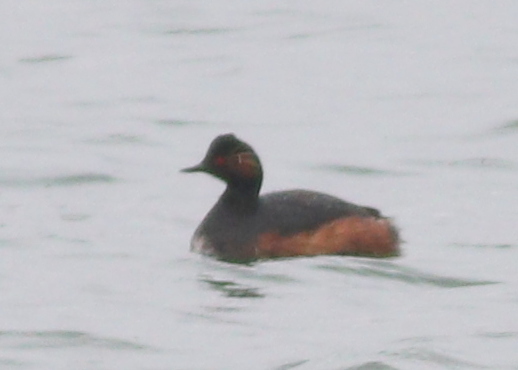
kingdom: Animalia
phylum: Chordata
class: Aves
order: Podicipediformes
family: Podicipedidae
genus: Podiceps
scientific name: Podiceps nigricollis
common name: Black-necked grebe
